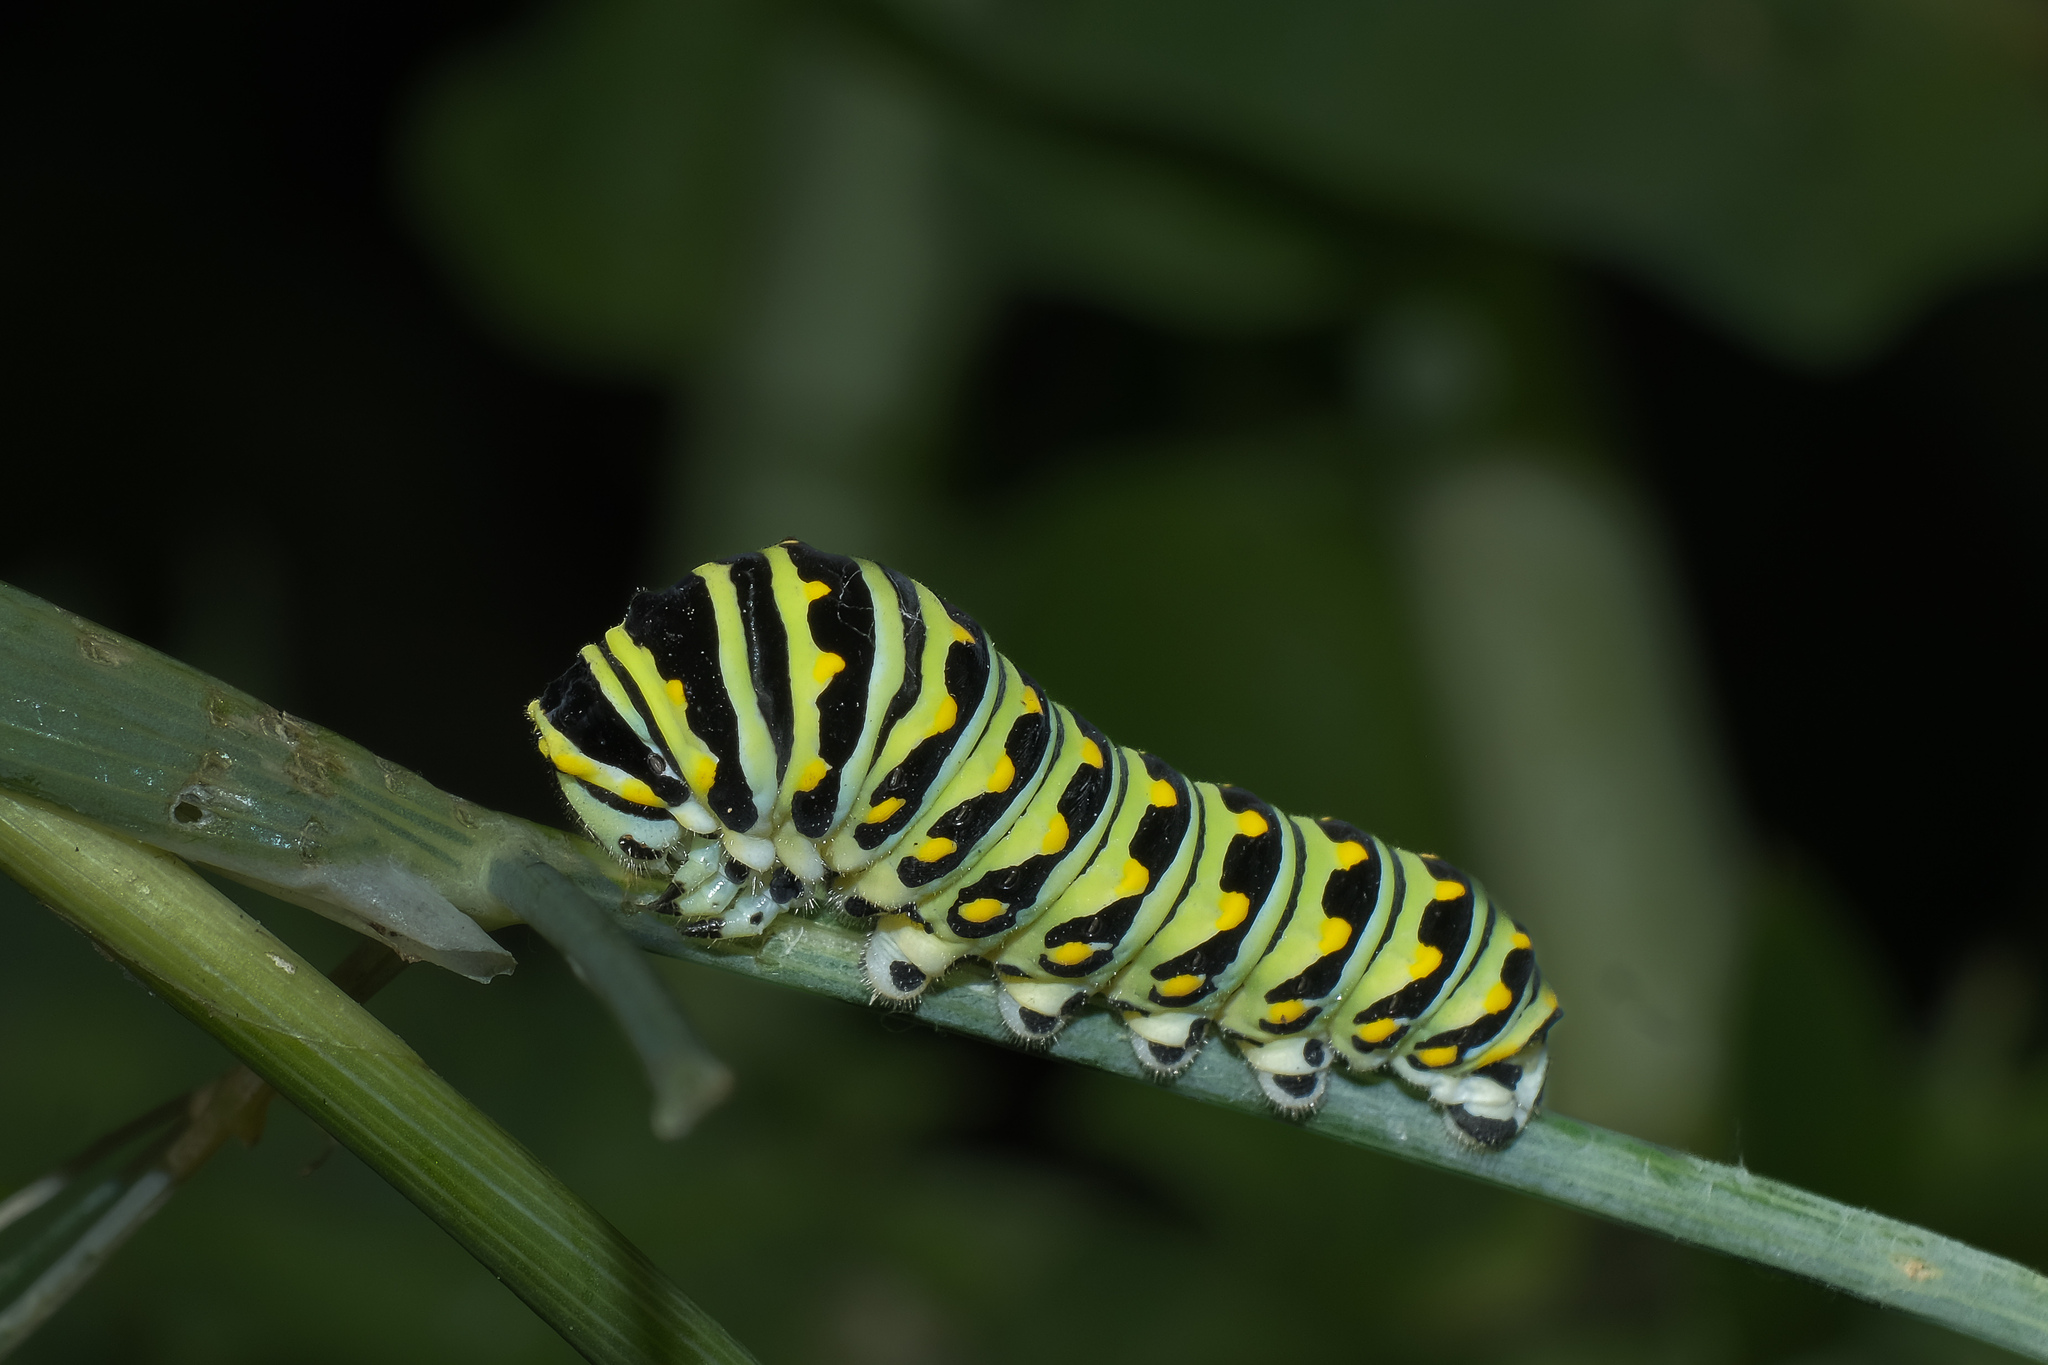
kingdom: Animalia
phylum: Arthropoda
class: Insecta
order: Lepidoptera
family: Papilionidae
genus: Papilio
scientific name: Papilio polyxenes
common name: Black swallowtail
